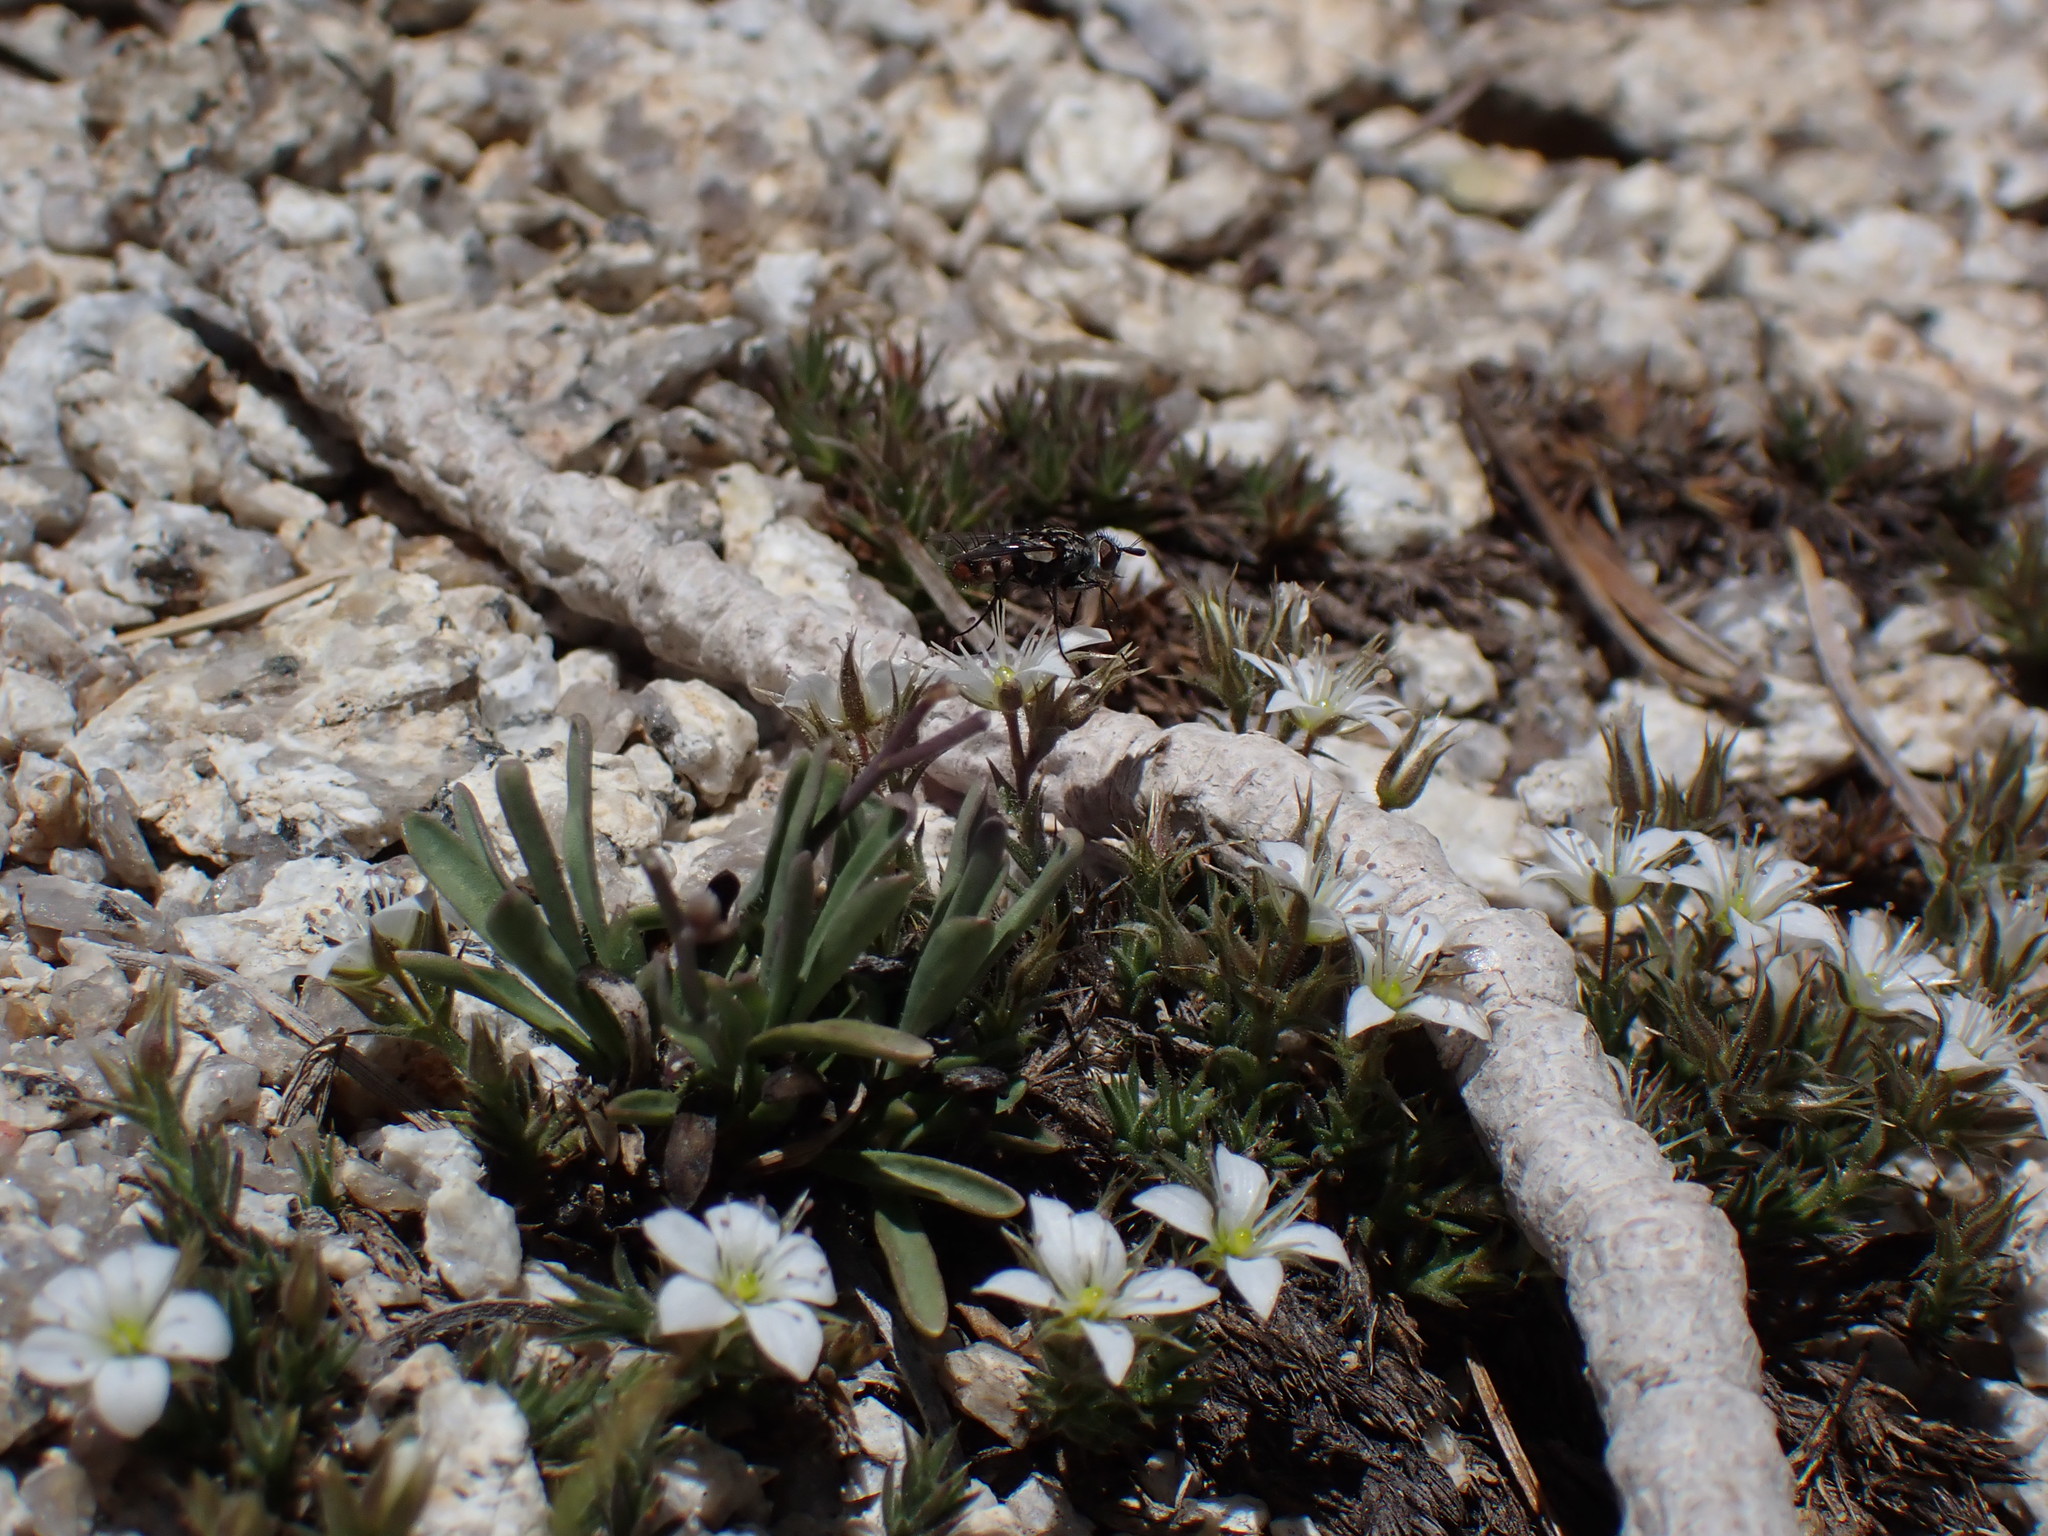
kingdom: Plantae
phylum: Tracheophyta
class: Magnoliopsida
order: Caryophyllales
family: Caryophyllaceae
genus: Sabulina
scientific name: Sabulina nuttallii
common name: Nuttall's stitchwort
